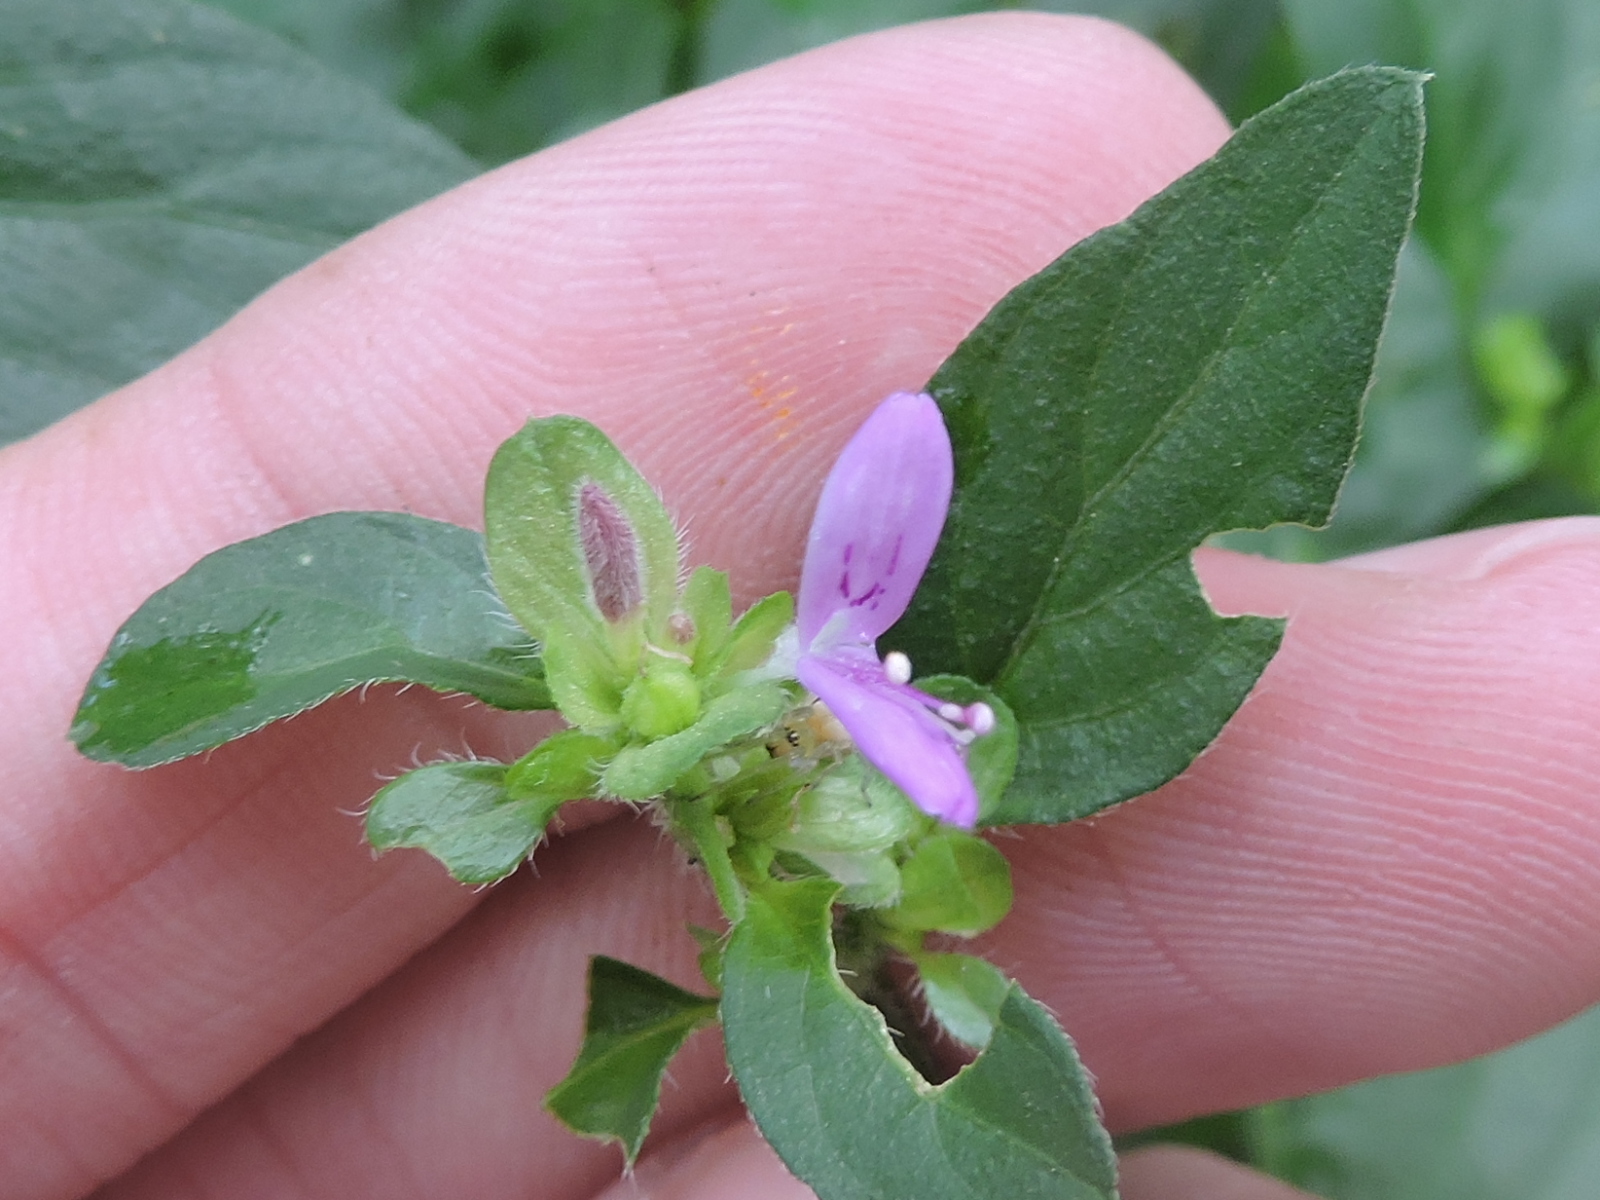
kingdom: Plantae
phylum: Tracheophyta
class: Magnoliopsida
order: Lamiales
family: Acanthaceae
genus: Dicliptera
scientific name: Dicliptera brachiata
